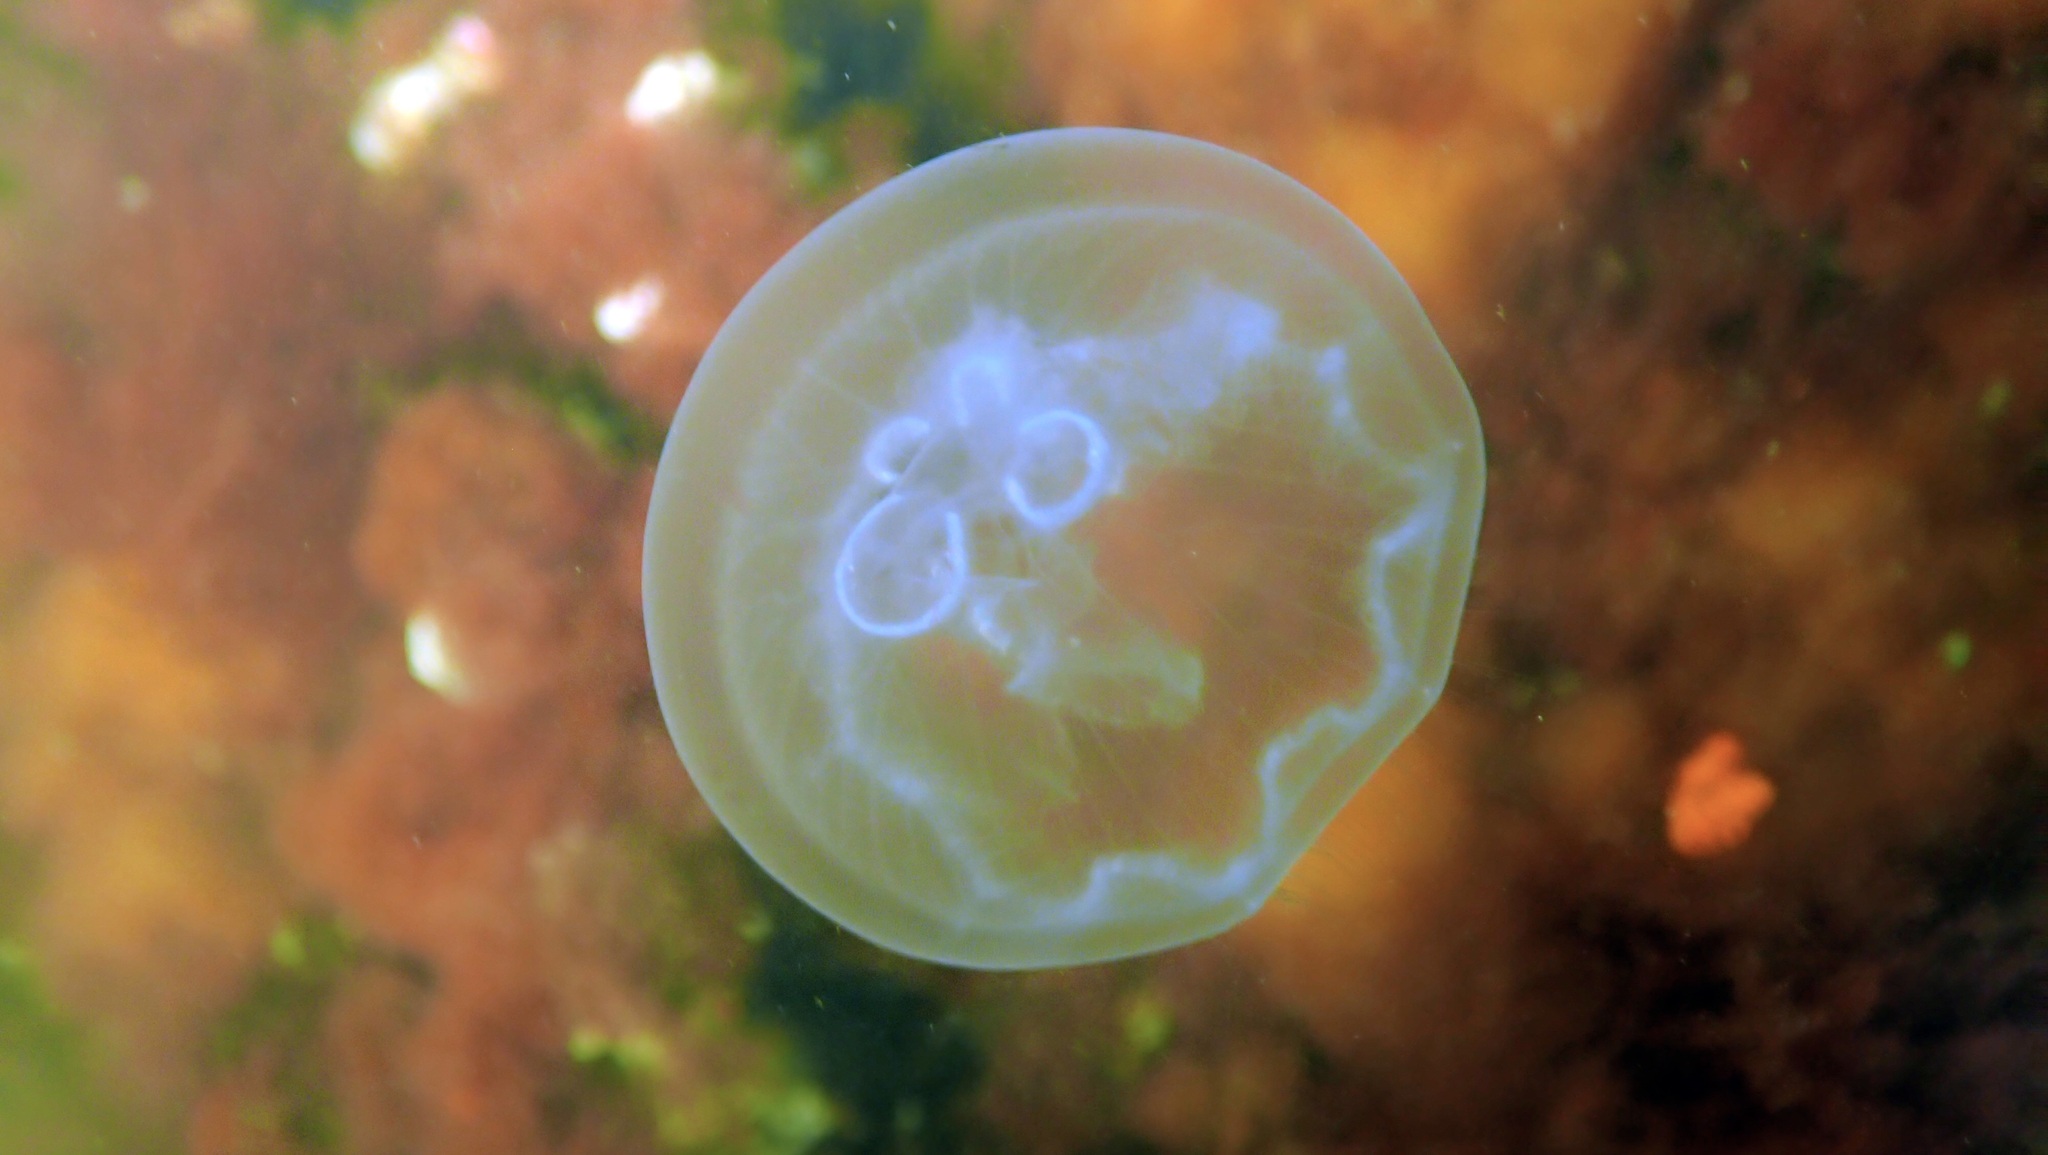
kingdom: Animalia
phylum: Cnidaria
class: Scyphozoa
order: Semaeostomeae
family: Ulmaridae
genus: Aurelia
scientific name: Aurelia aurita
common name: Moon jellyfish
